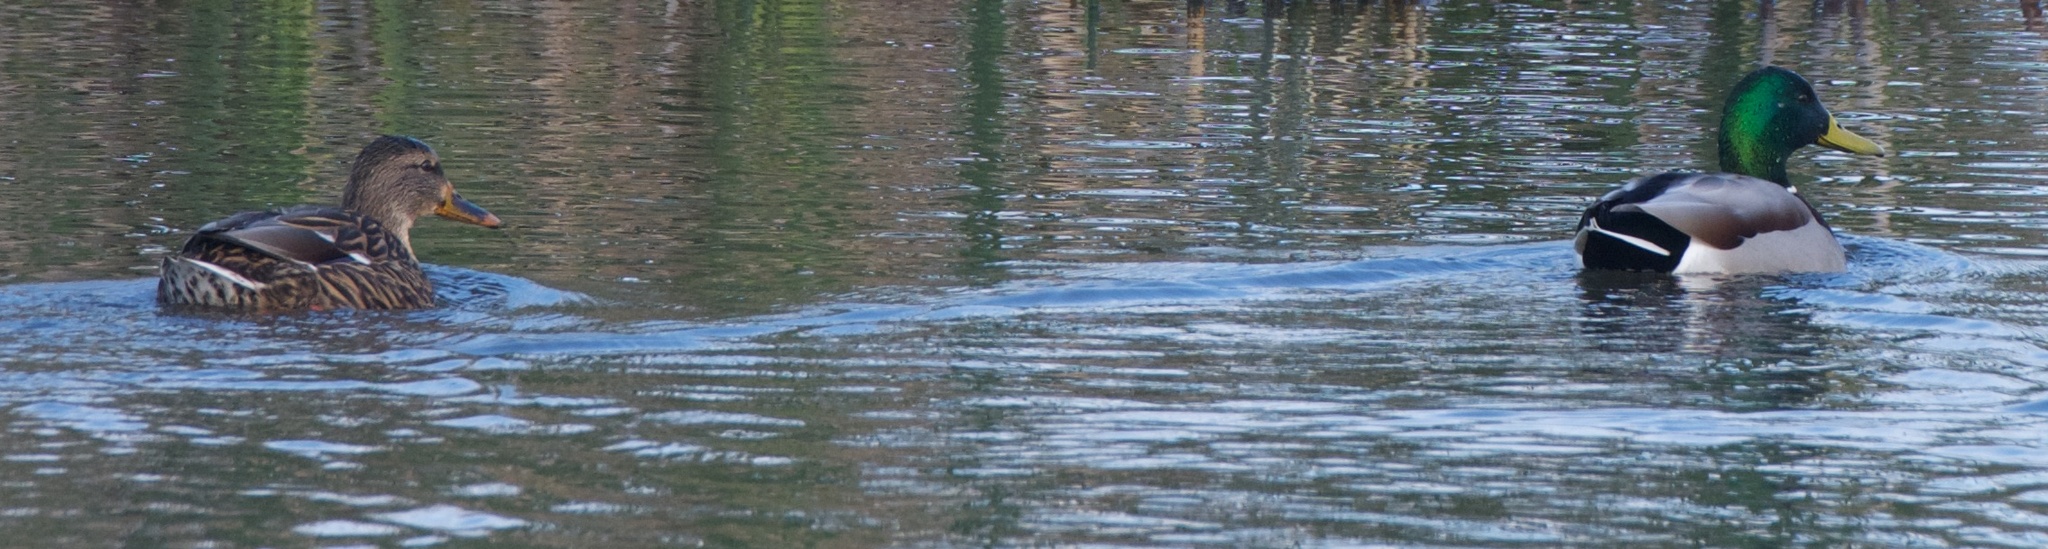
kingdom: Animalia
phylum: Chordata
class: Aves
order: Anseriformes
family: Anatidae
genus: Anas
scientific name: Anas platyrhynchos
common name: Mallard
